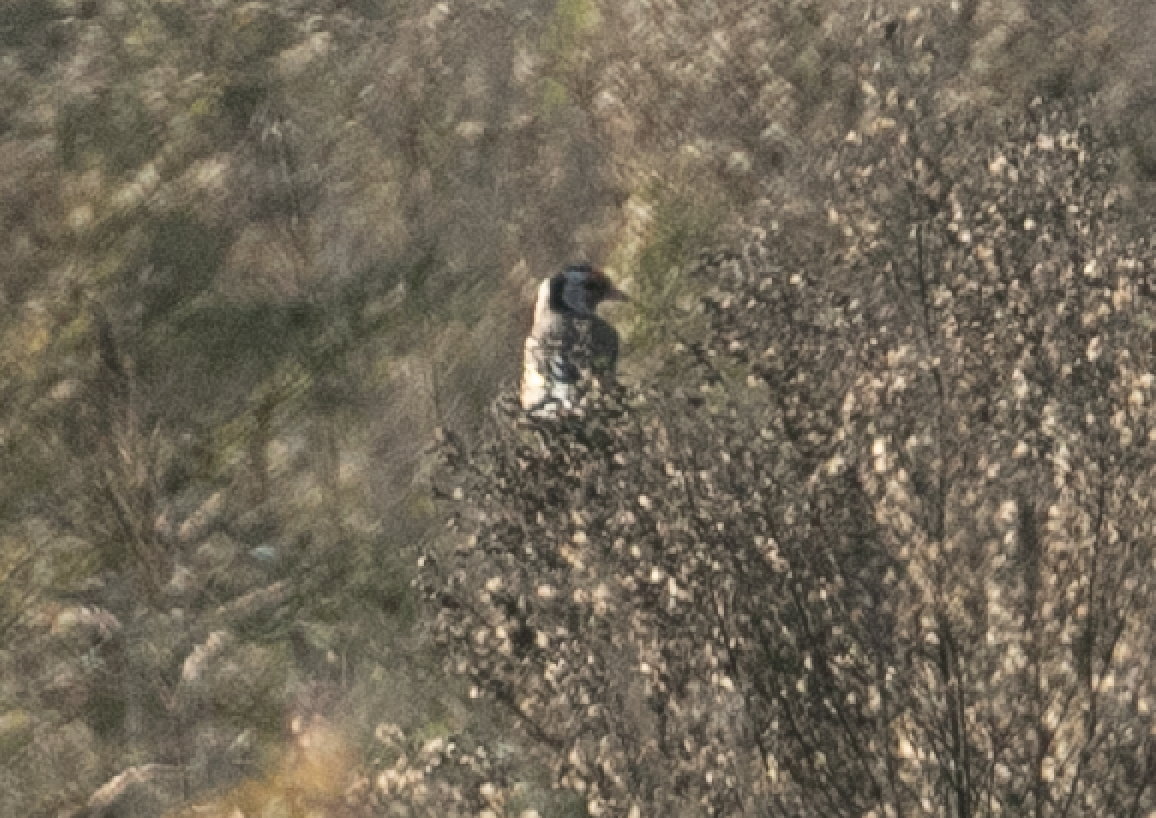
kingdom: Animalia
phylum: Chordata
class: Aves
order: Passeriformes
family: Fringillidae
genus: Carduelis
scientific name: Carduelis carduelis
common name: European goldfinch
